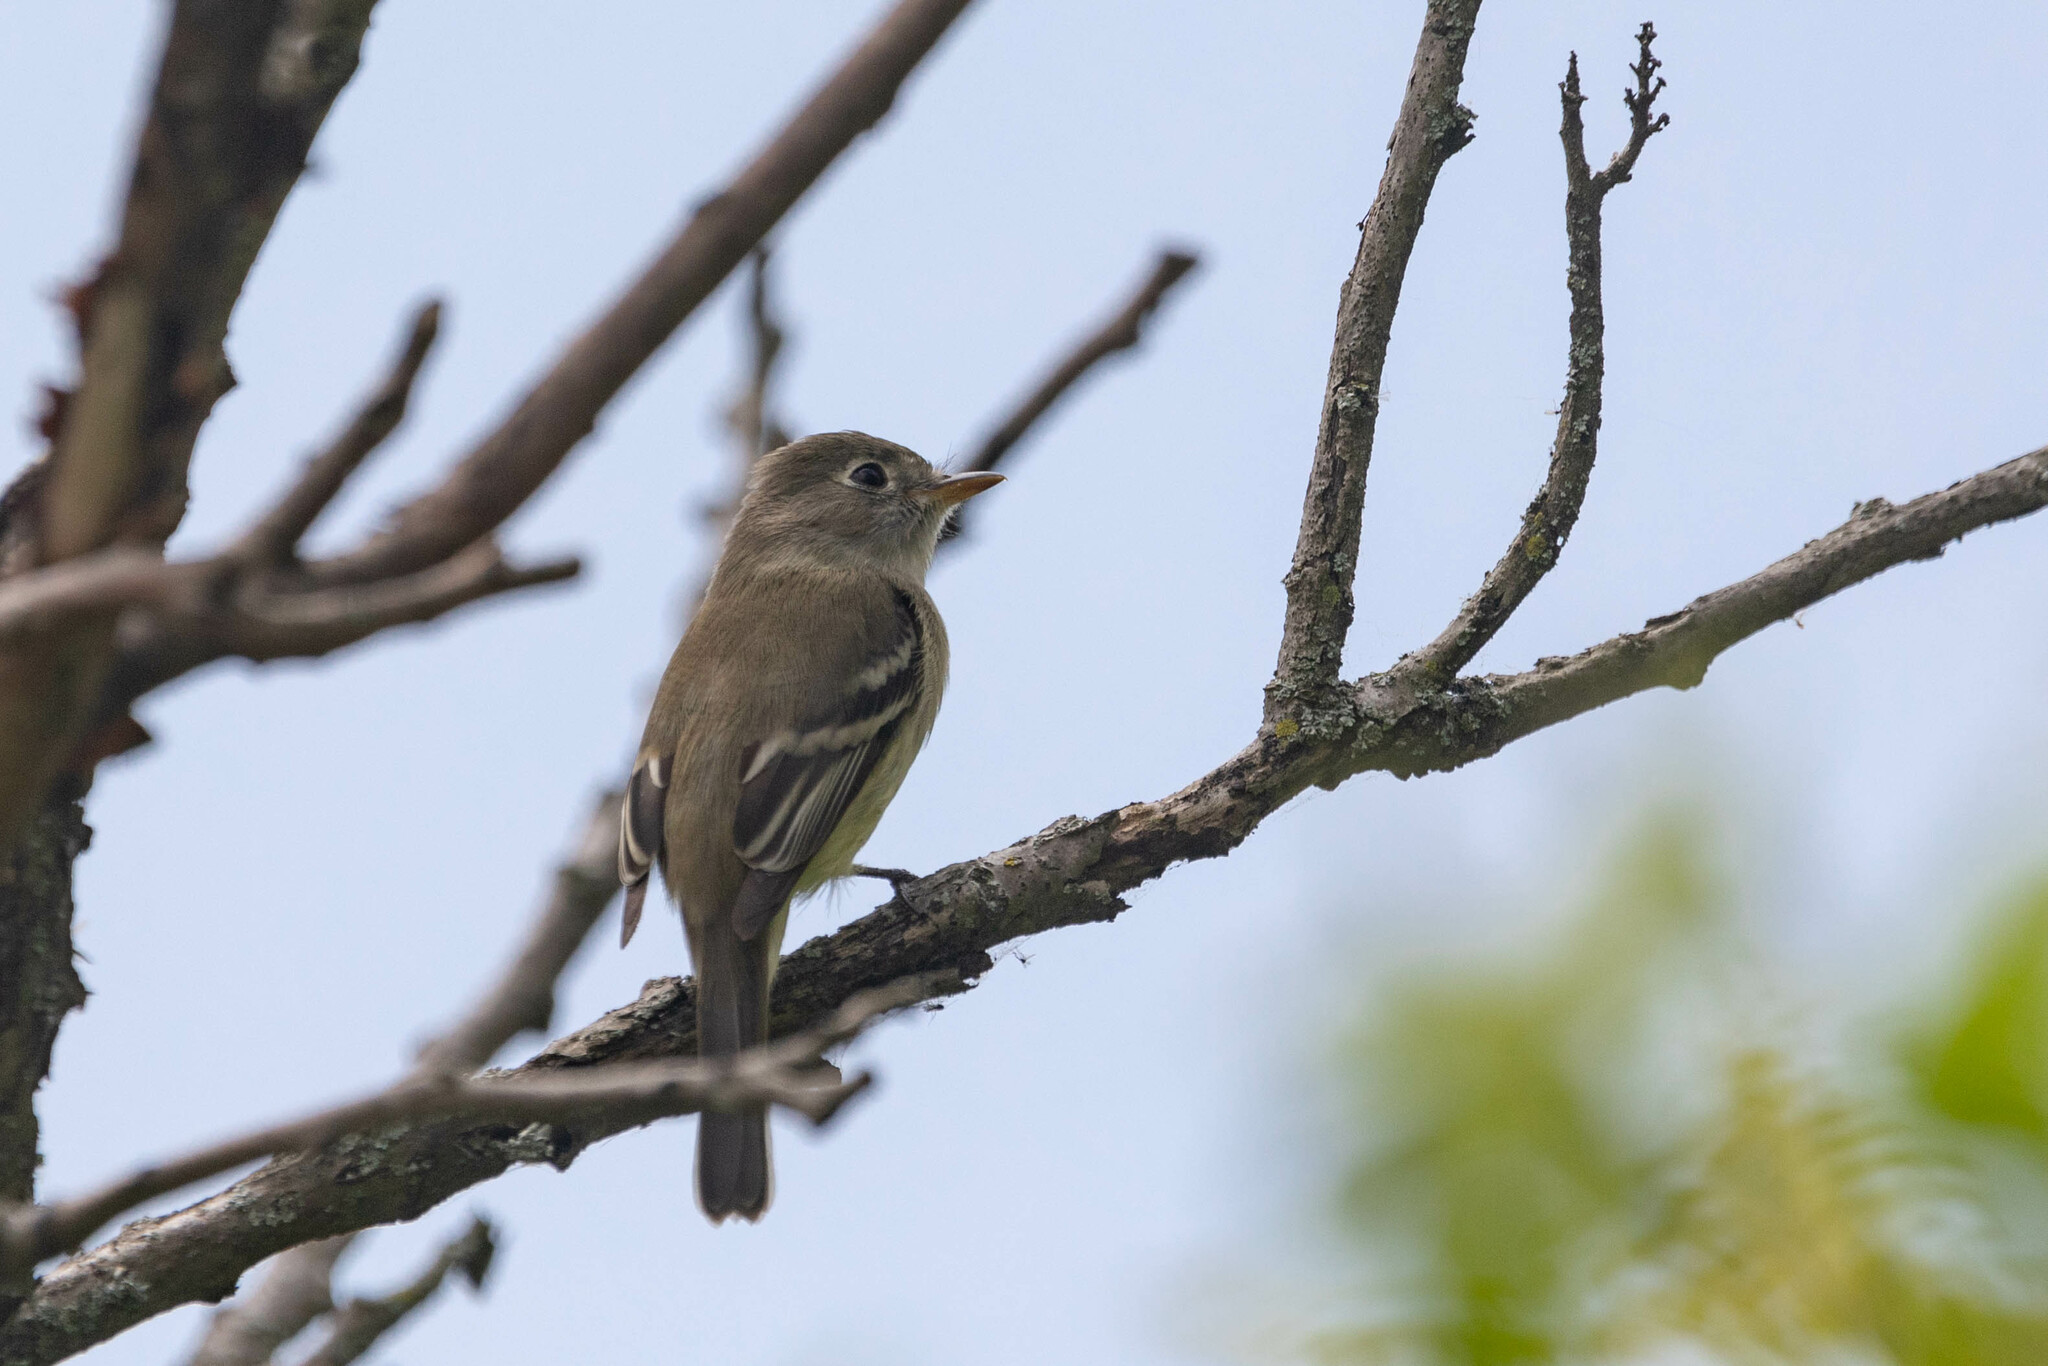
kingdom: Animalia
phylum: Chordata
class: Aves
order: Passeriformes
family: Tyrannidae
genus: Empidonax
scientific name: Empidonax minimus
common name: Least flycatcher
